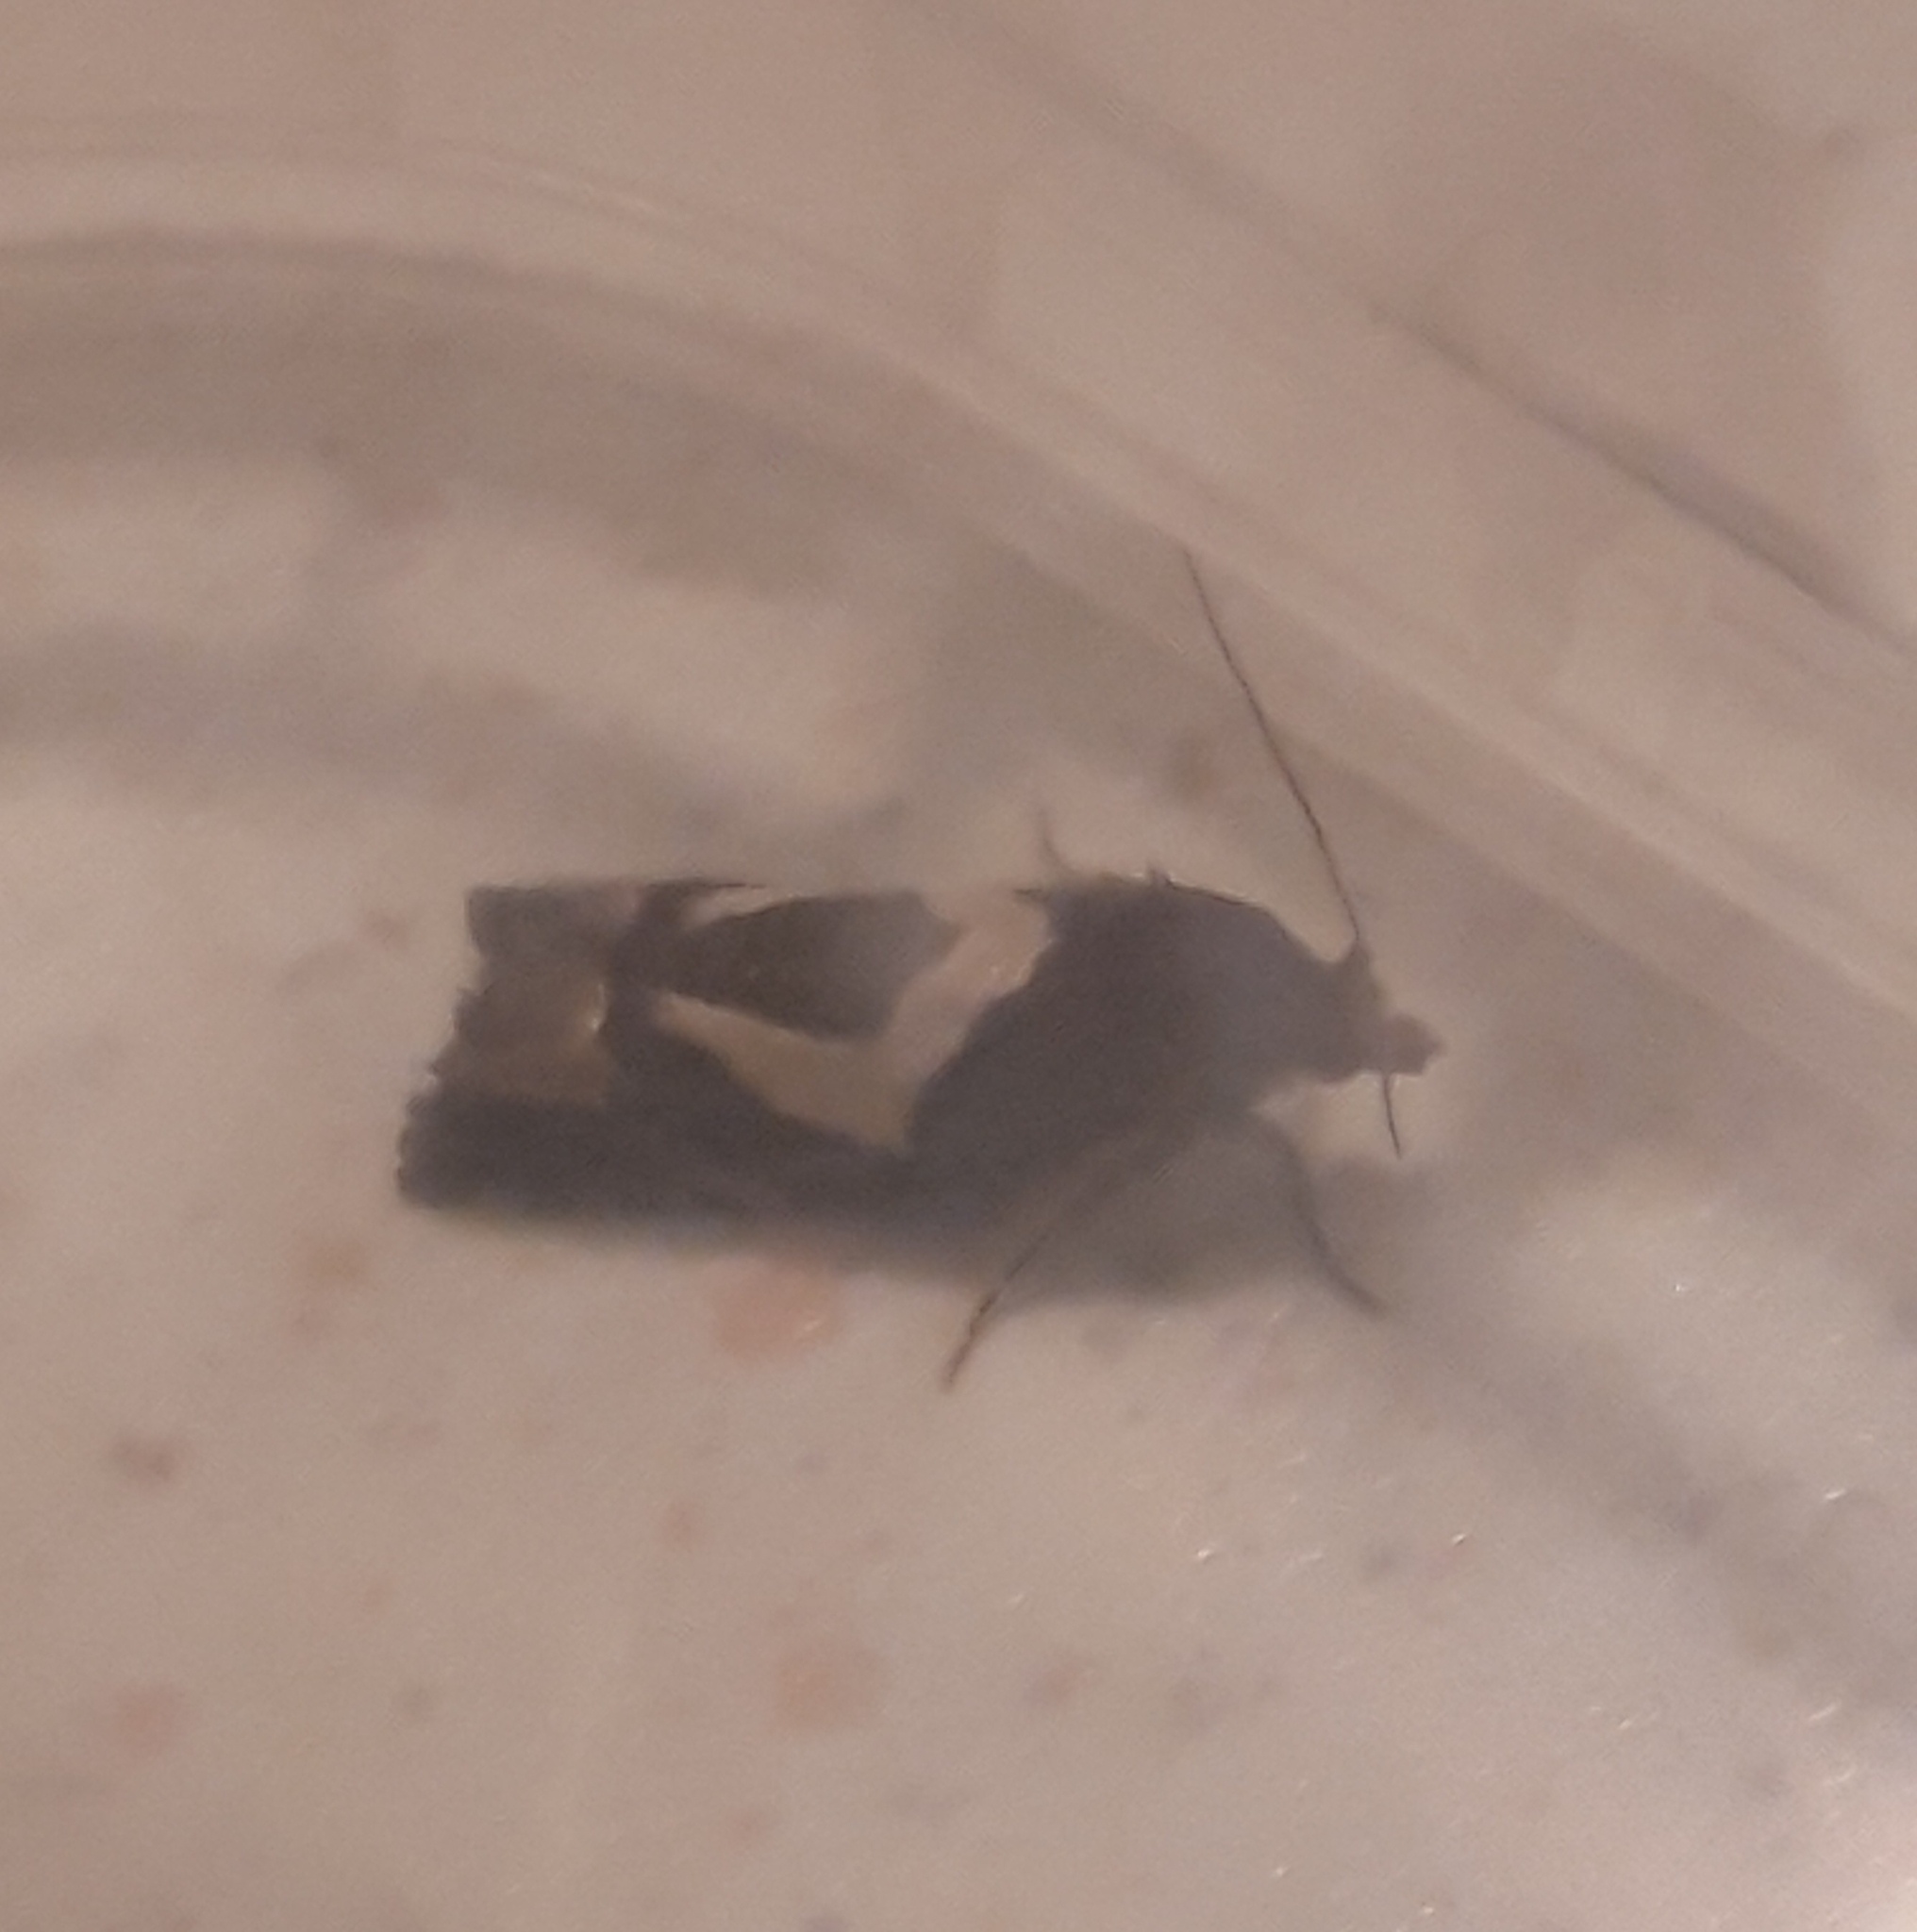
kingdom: Animalia
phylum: Arthropoda
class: Insecta
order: Lepidoptera
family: Tortricidae
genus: Epiblema
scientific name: Epiblema foenella
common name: White-foot bell
